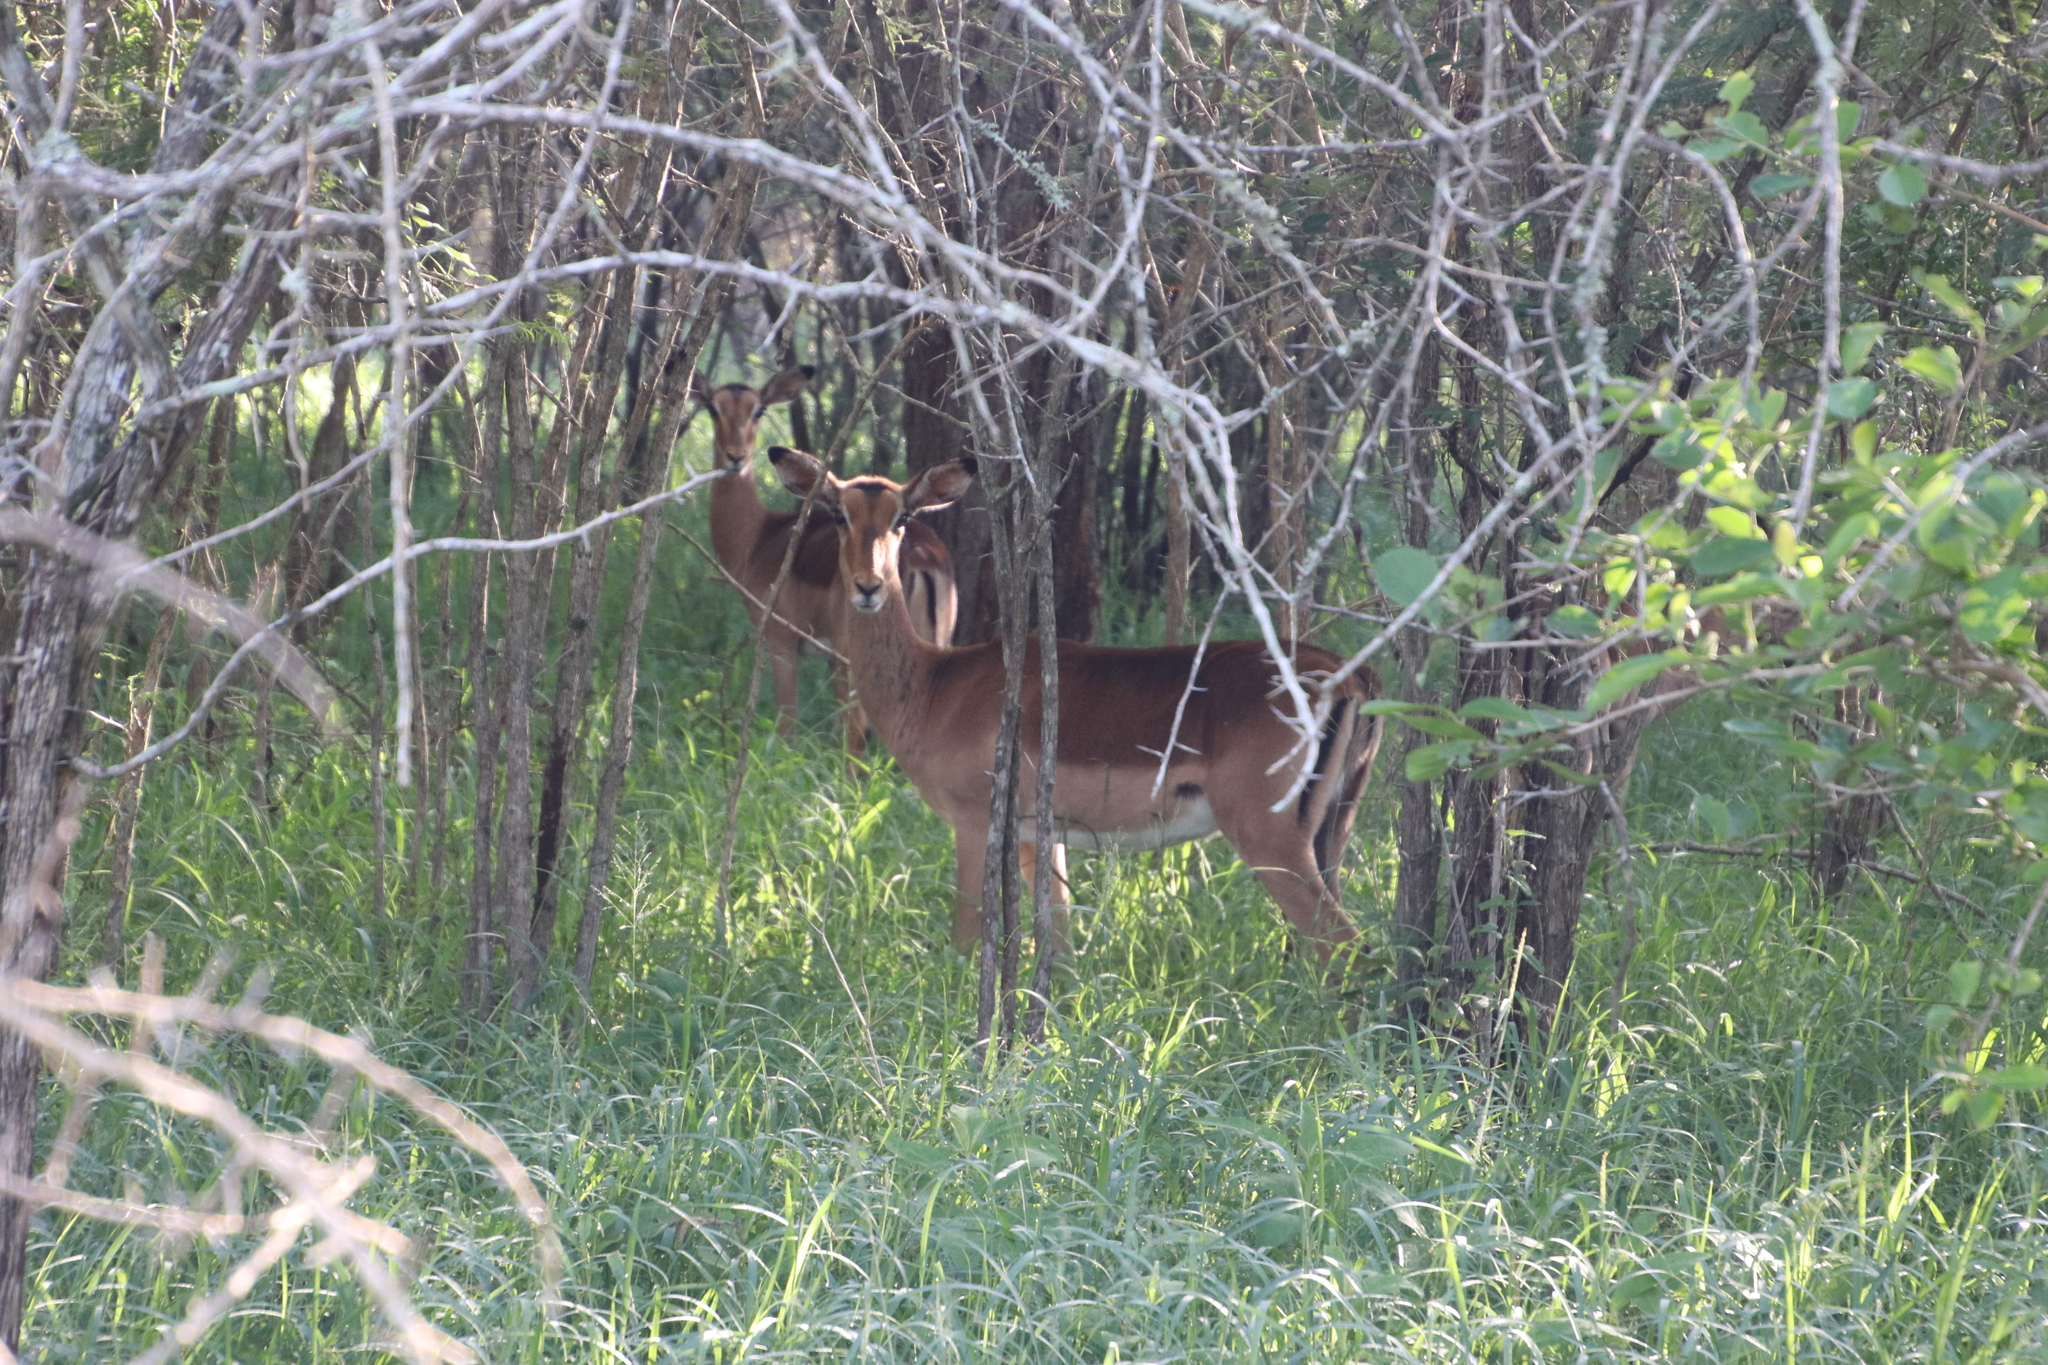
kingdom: Animalia
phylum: Chordata
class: Mammalia
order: Artiodactyla
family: Bovidae
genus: Aepyceros
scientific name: Aepyceros melampus
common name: Impala
